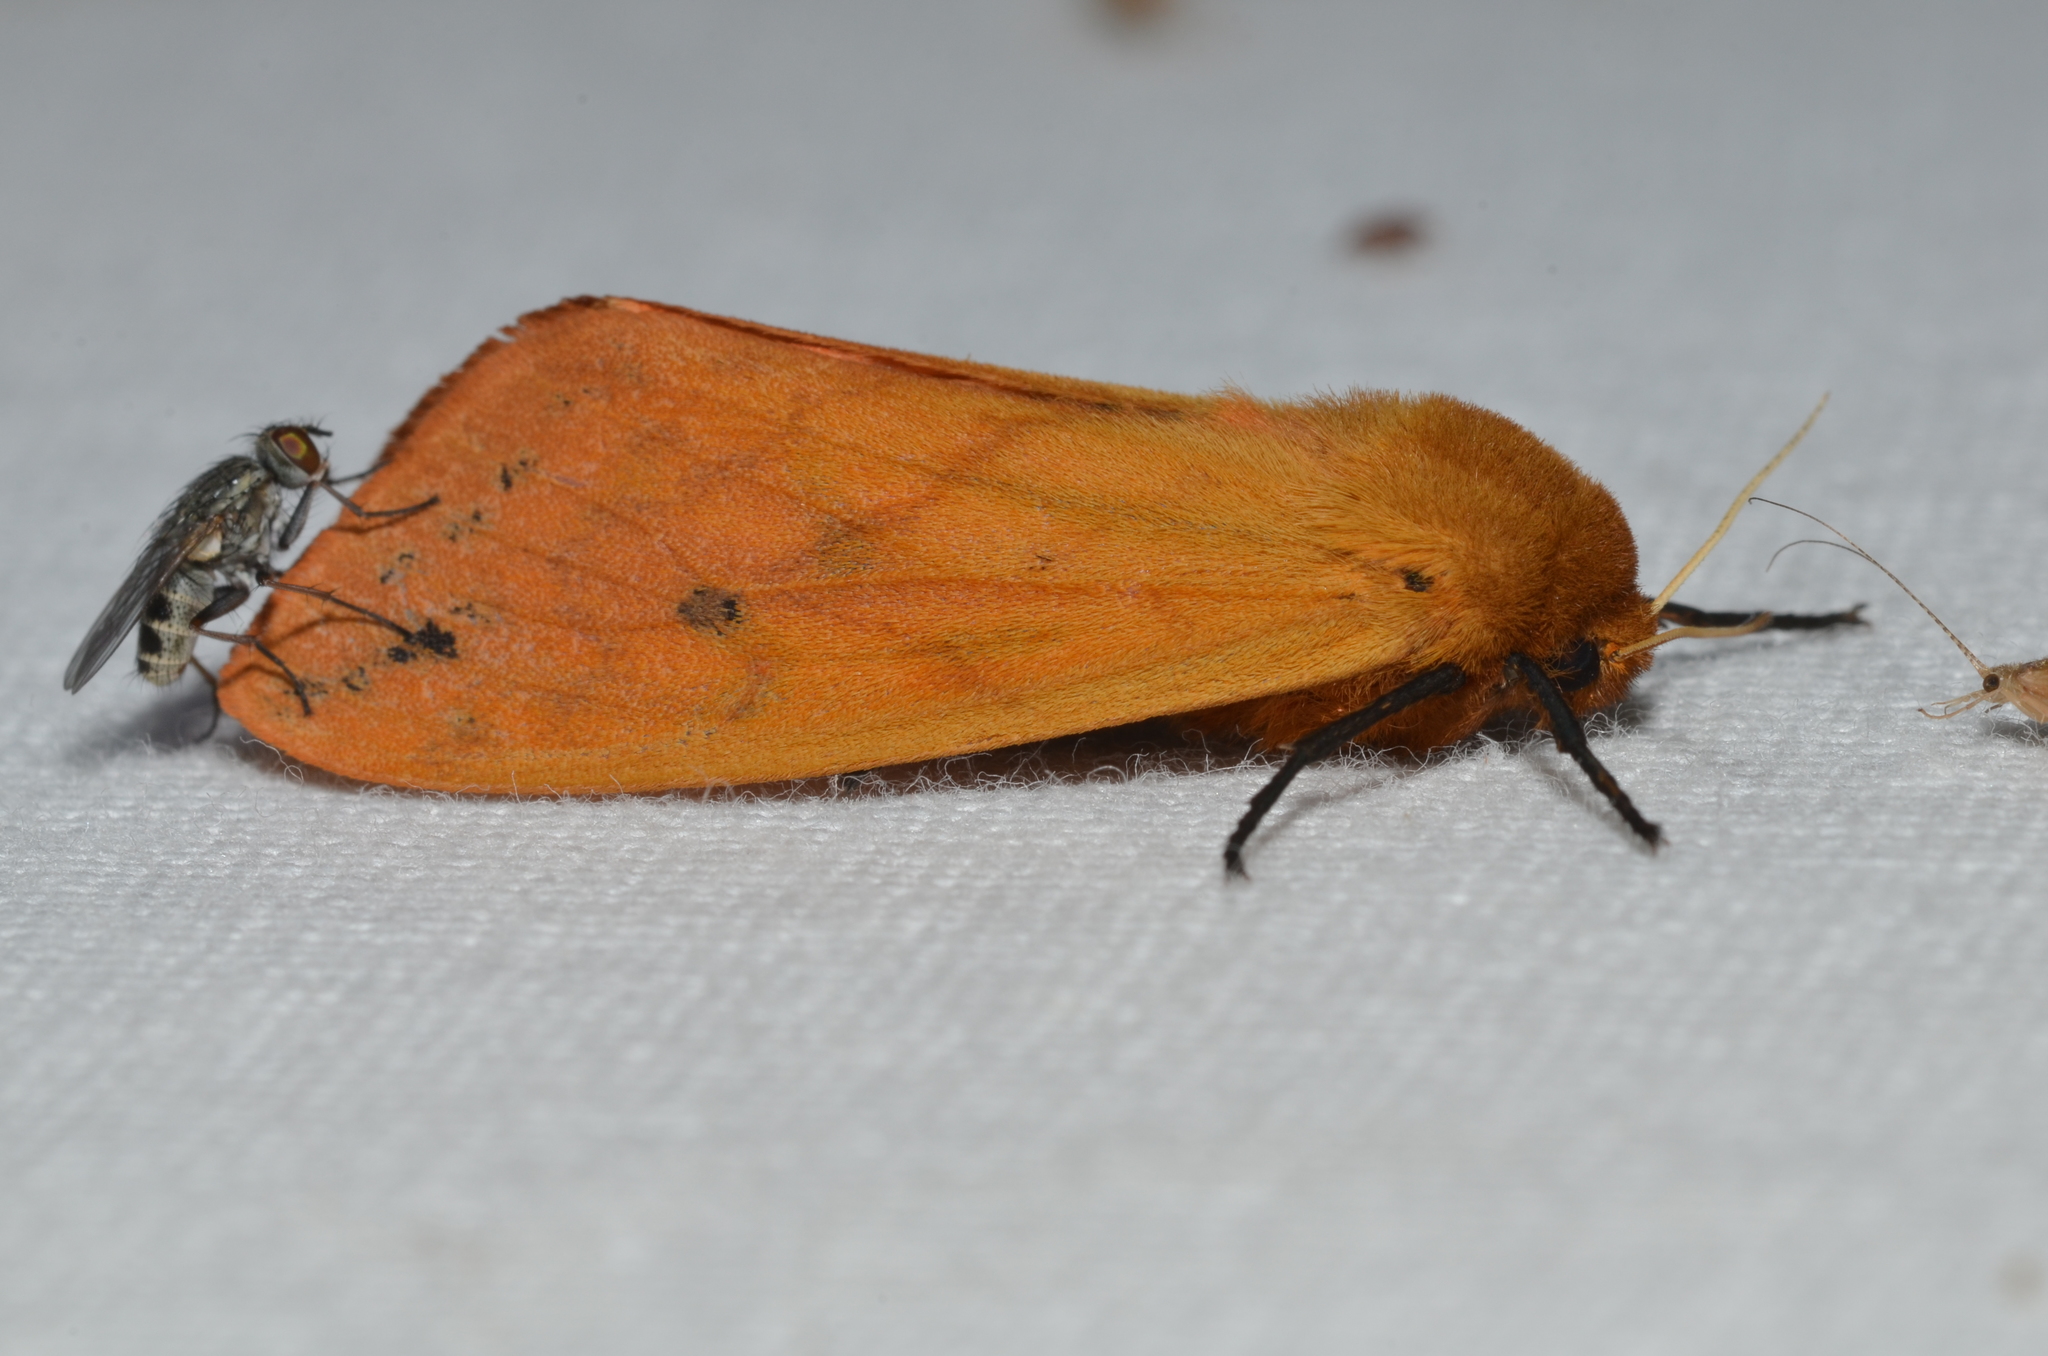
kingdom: Animalia
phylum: Arthropoda
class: Insecta
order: Lepidoptera
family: Erebidae
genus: Pyrrharctia
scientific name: Pyrrharctia isabella
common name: Isabella tiger moth
